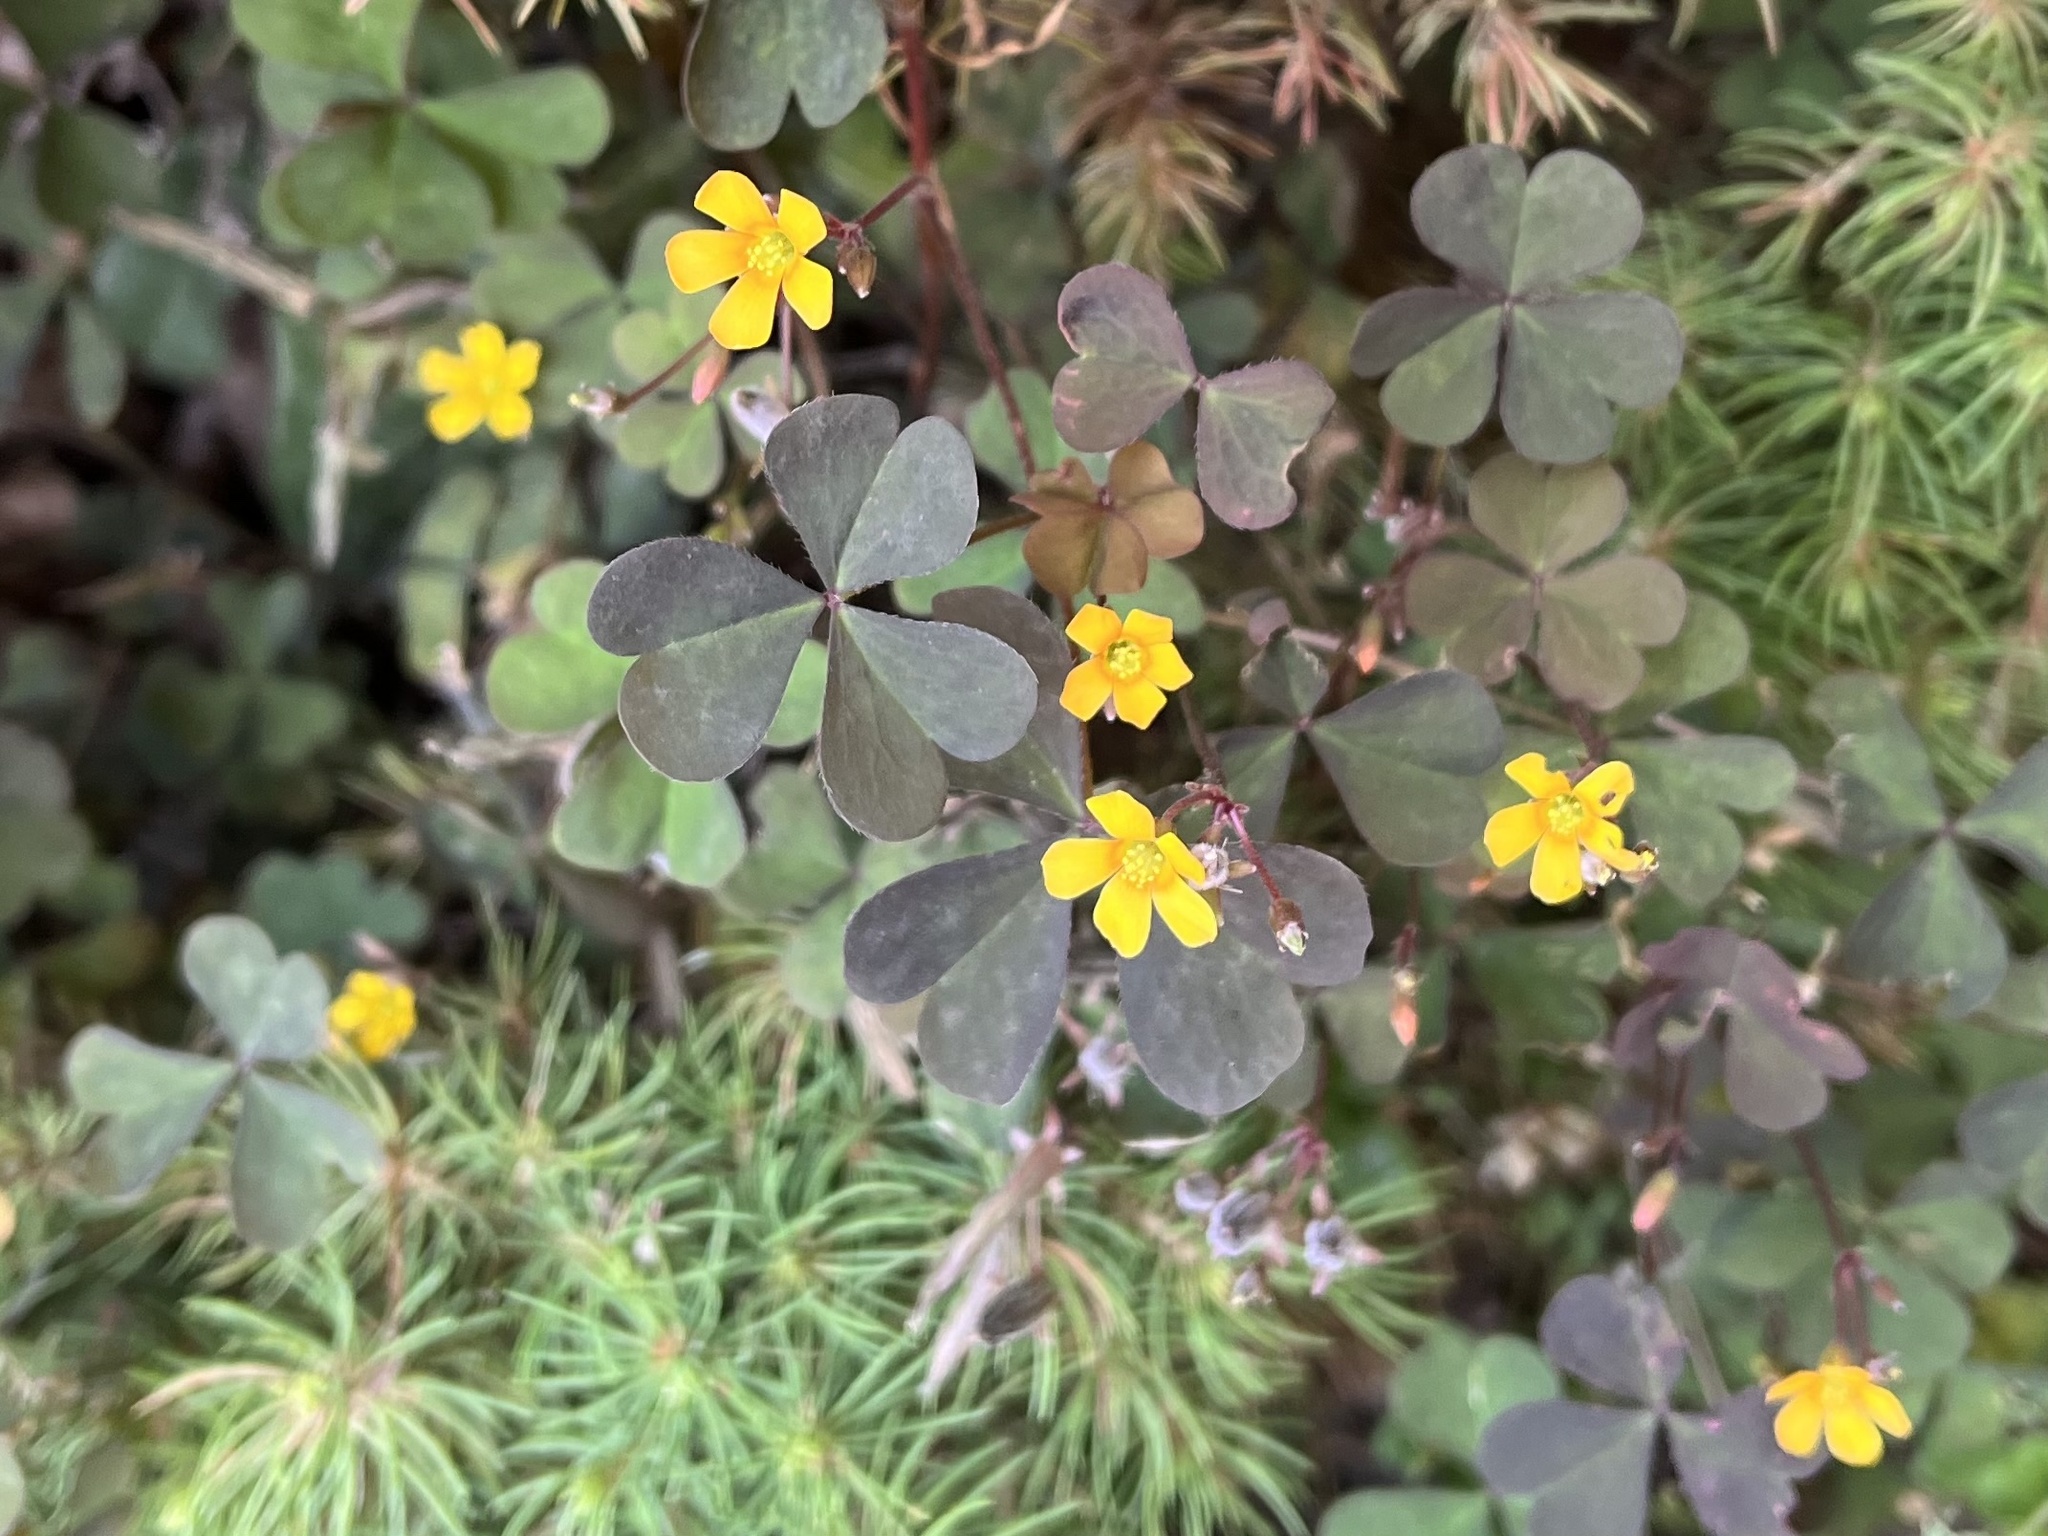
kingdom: Plantae
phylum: Tracheophyta
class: Magnoliopsida
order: Oxalidales
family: Oxalidaceae
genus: Oxalis
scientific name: Oxalis corniculata
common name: Procumbent yellow-sorrel
